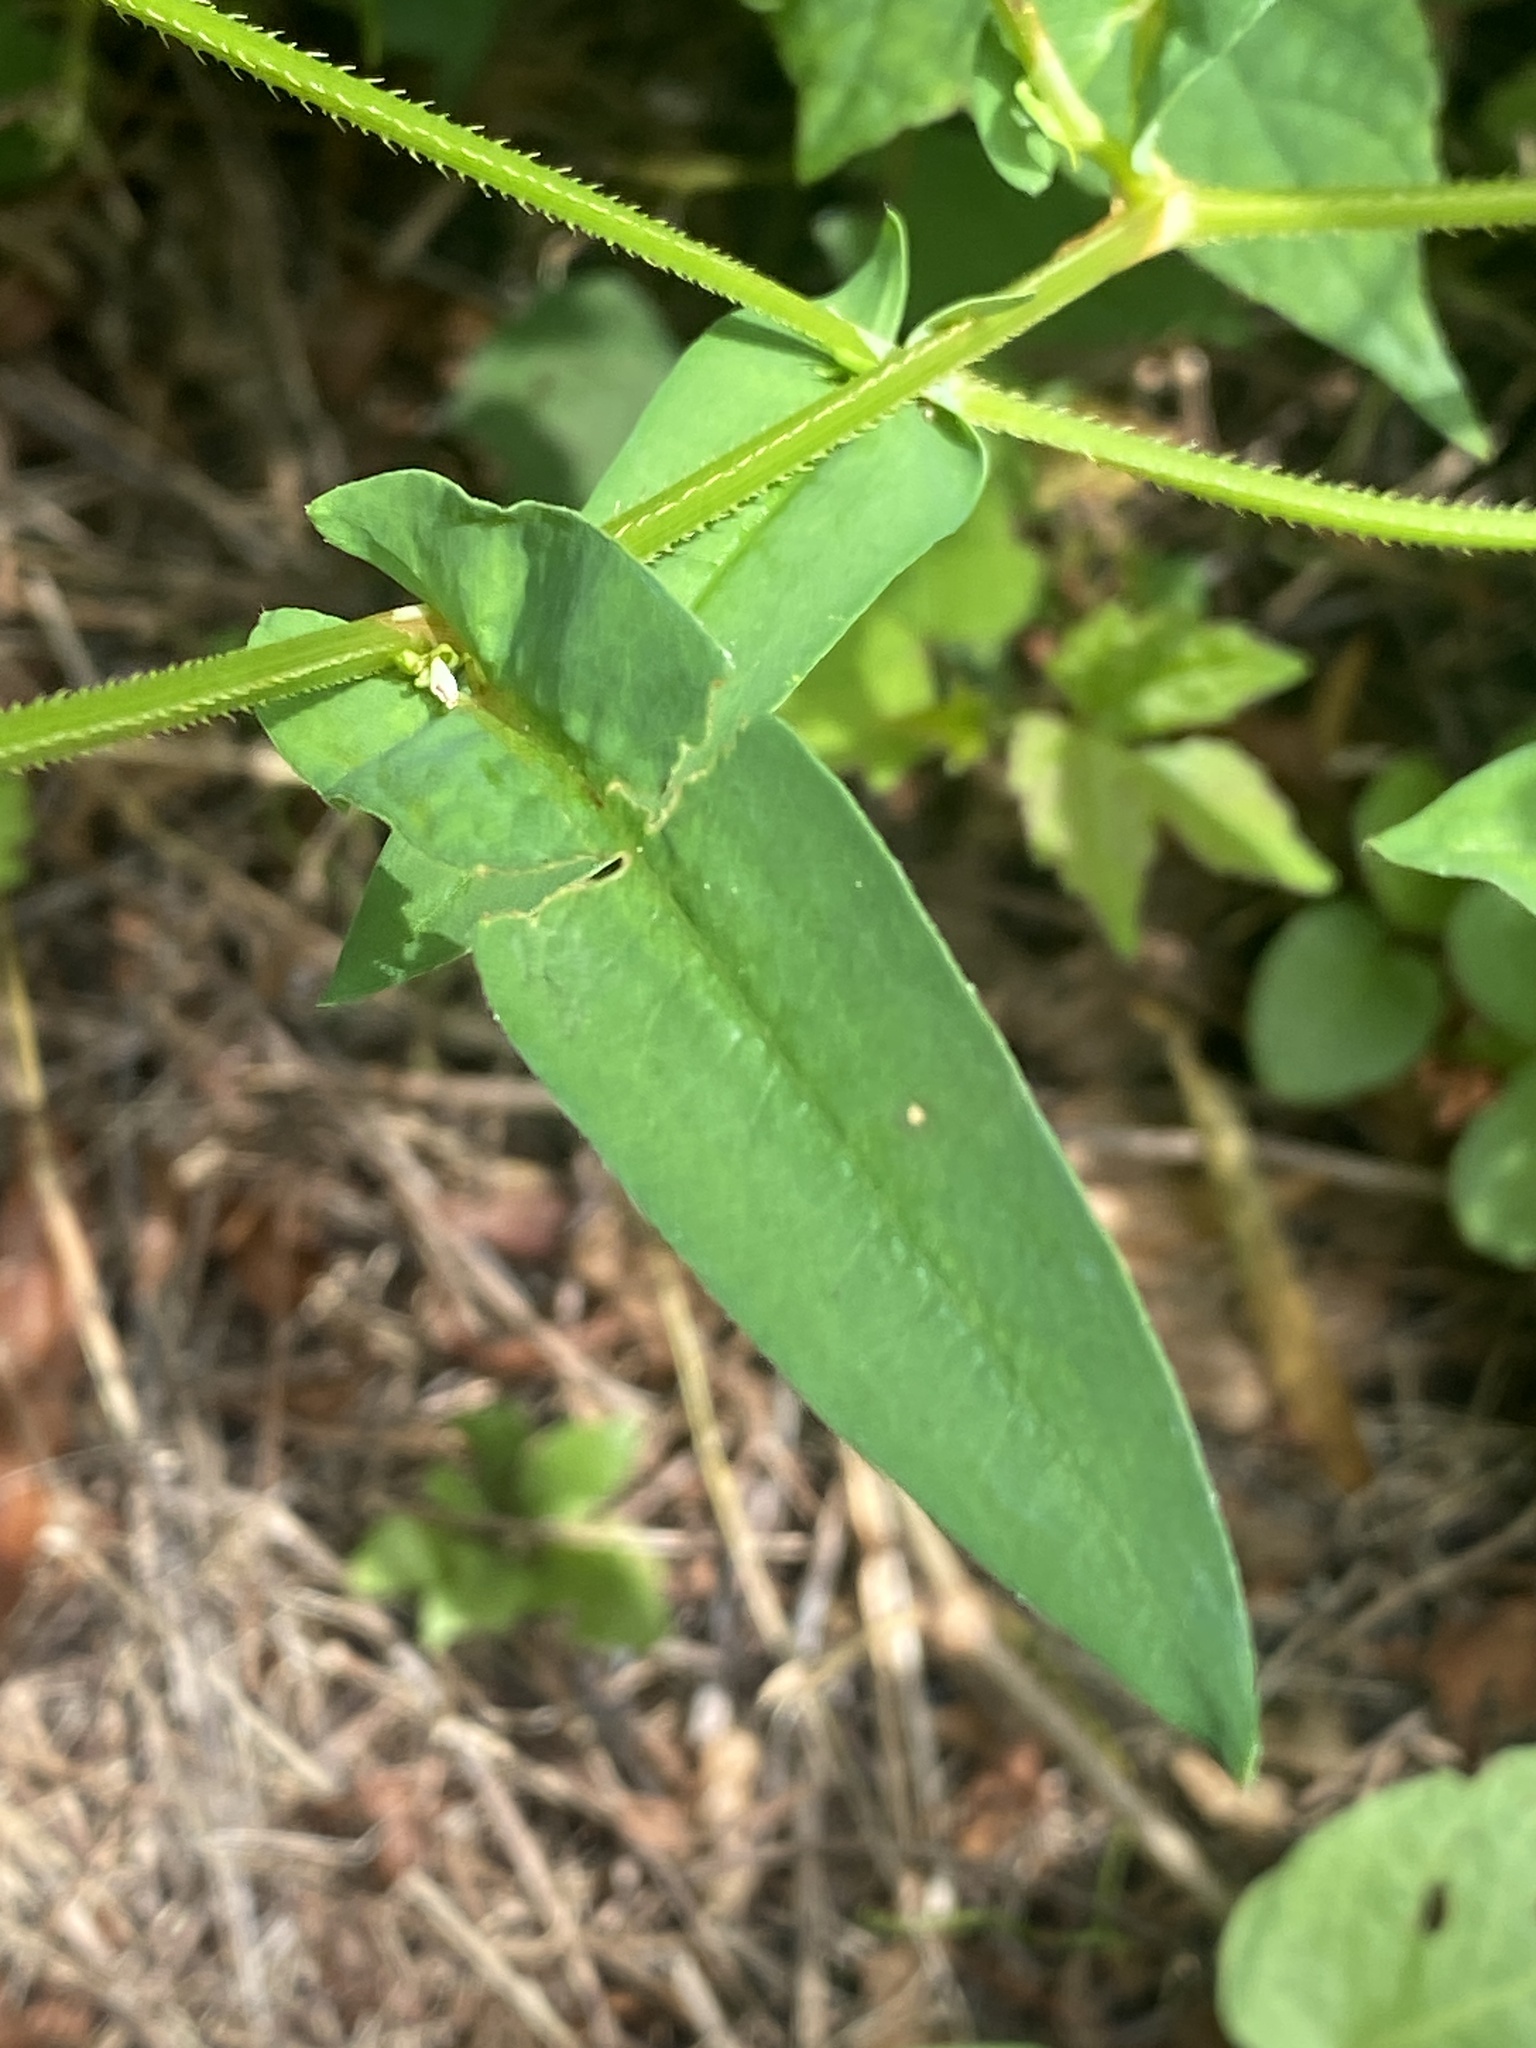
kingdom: Plantae
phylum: Tracheophyta
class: Magnoliopsida
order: Caryophyllales
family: Polygonaceae
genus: Persicaria
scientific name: Persicaria sagittata
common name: American tearthumb
